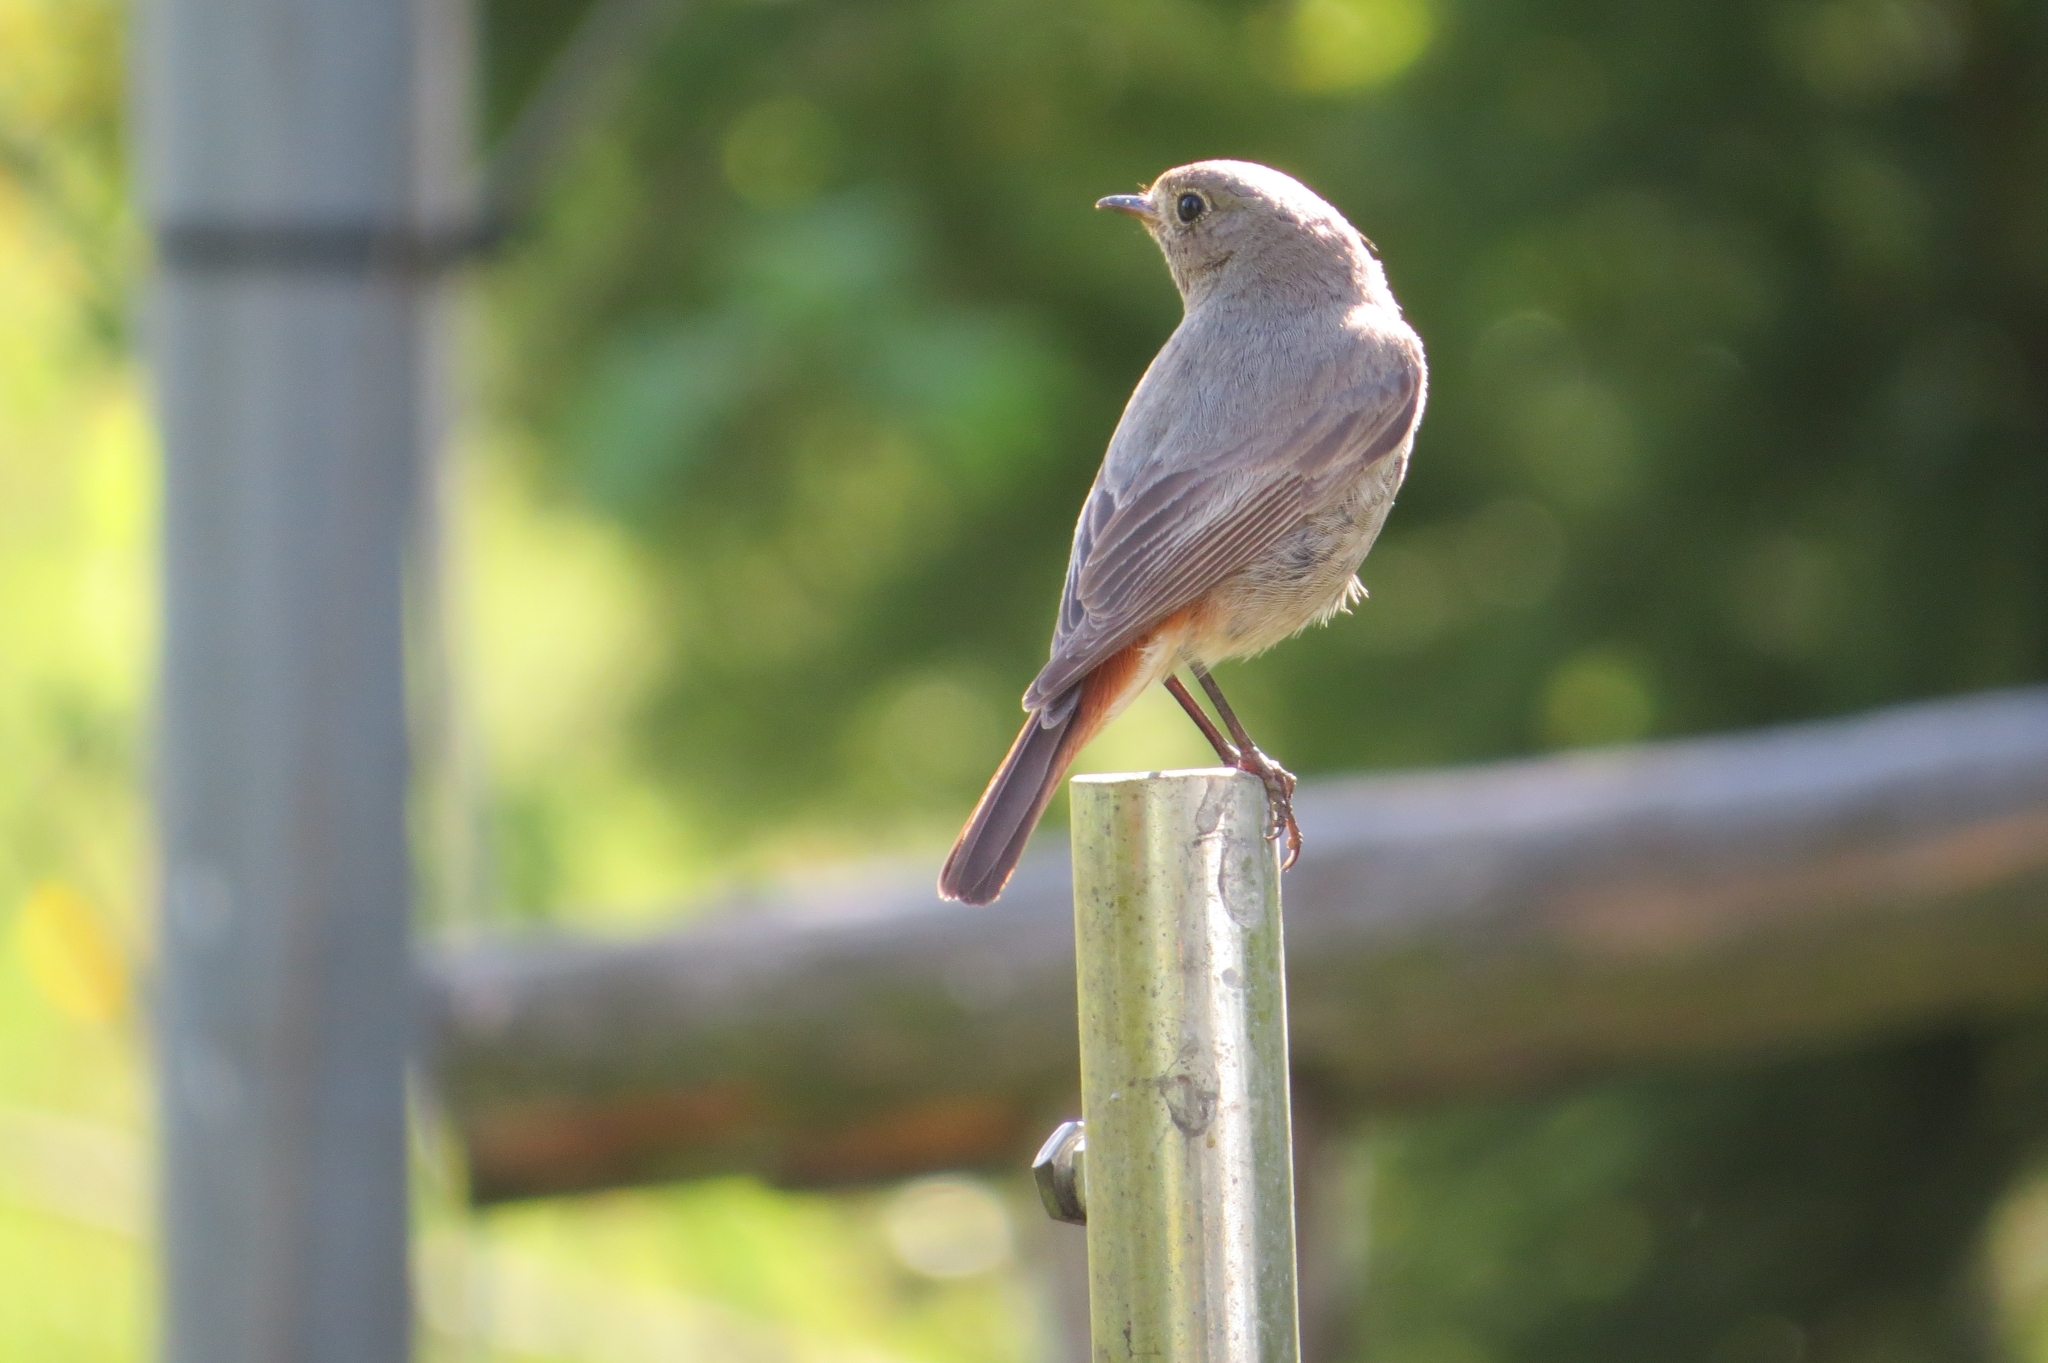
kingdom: Animalia
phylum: Chordata
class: Aves
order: Passeriformes
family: Muscicapidae
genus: Phoenicurus
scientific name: Phoenicurus ochruros
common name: Black redstart
